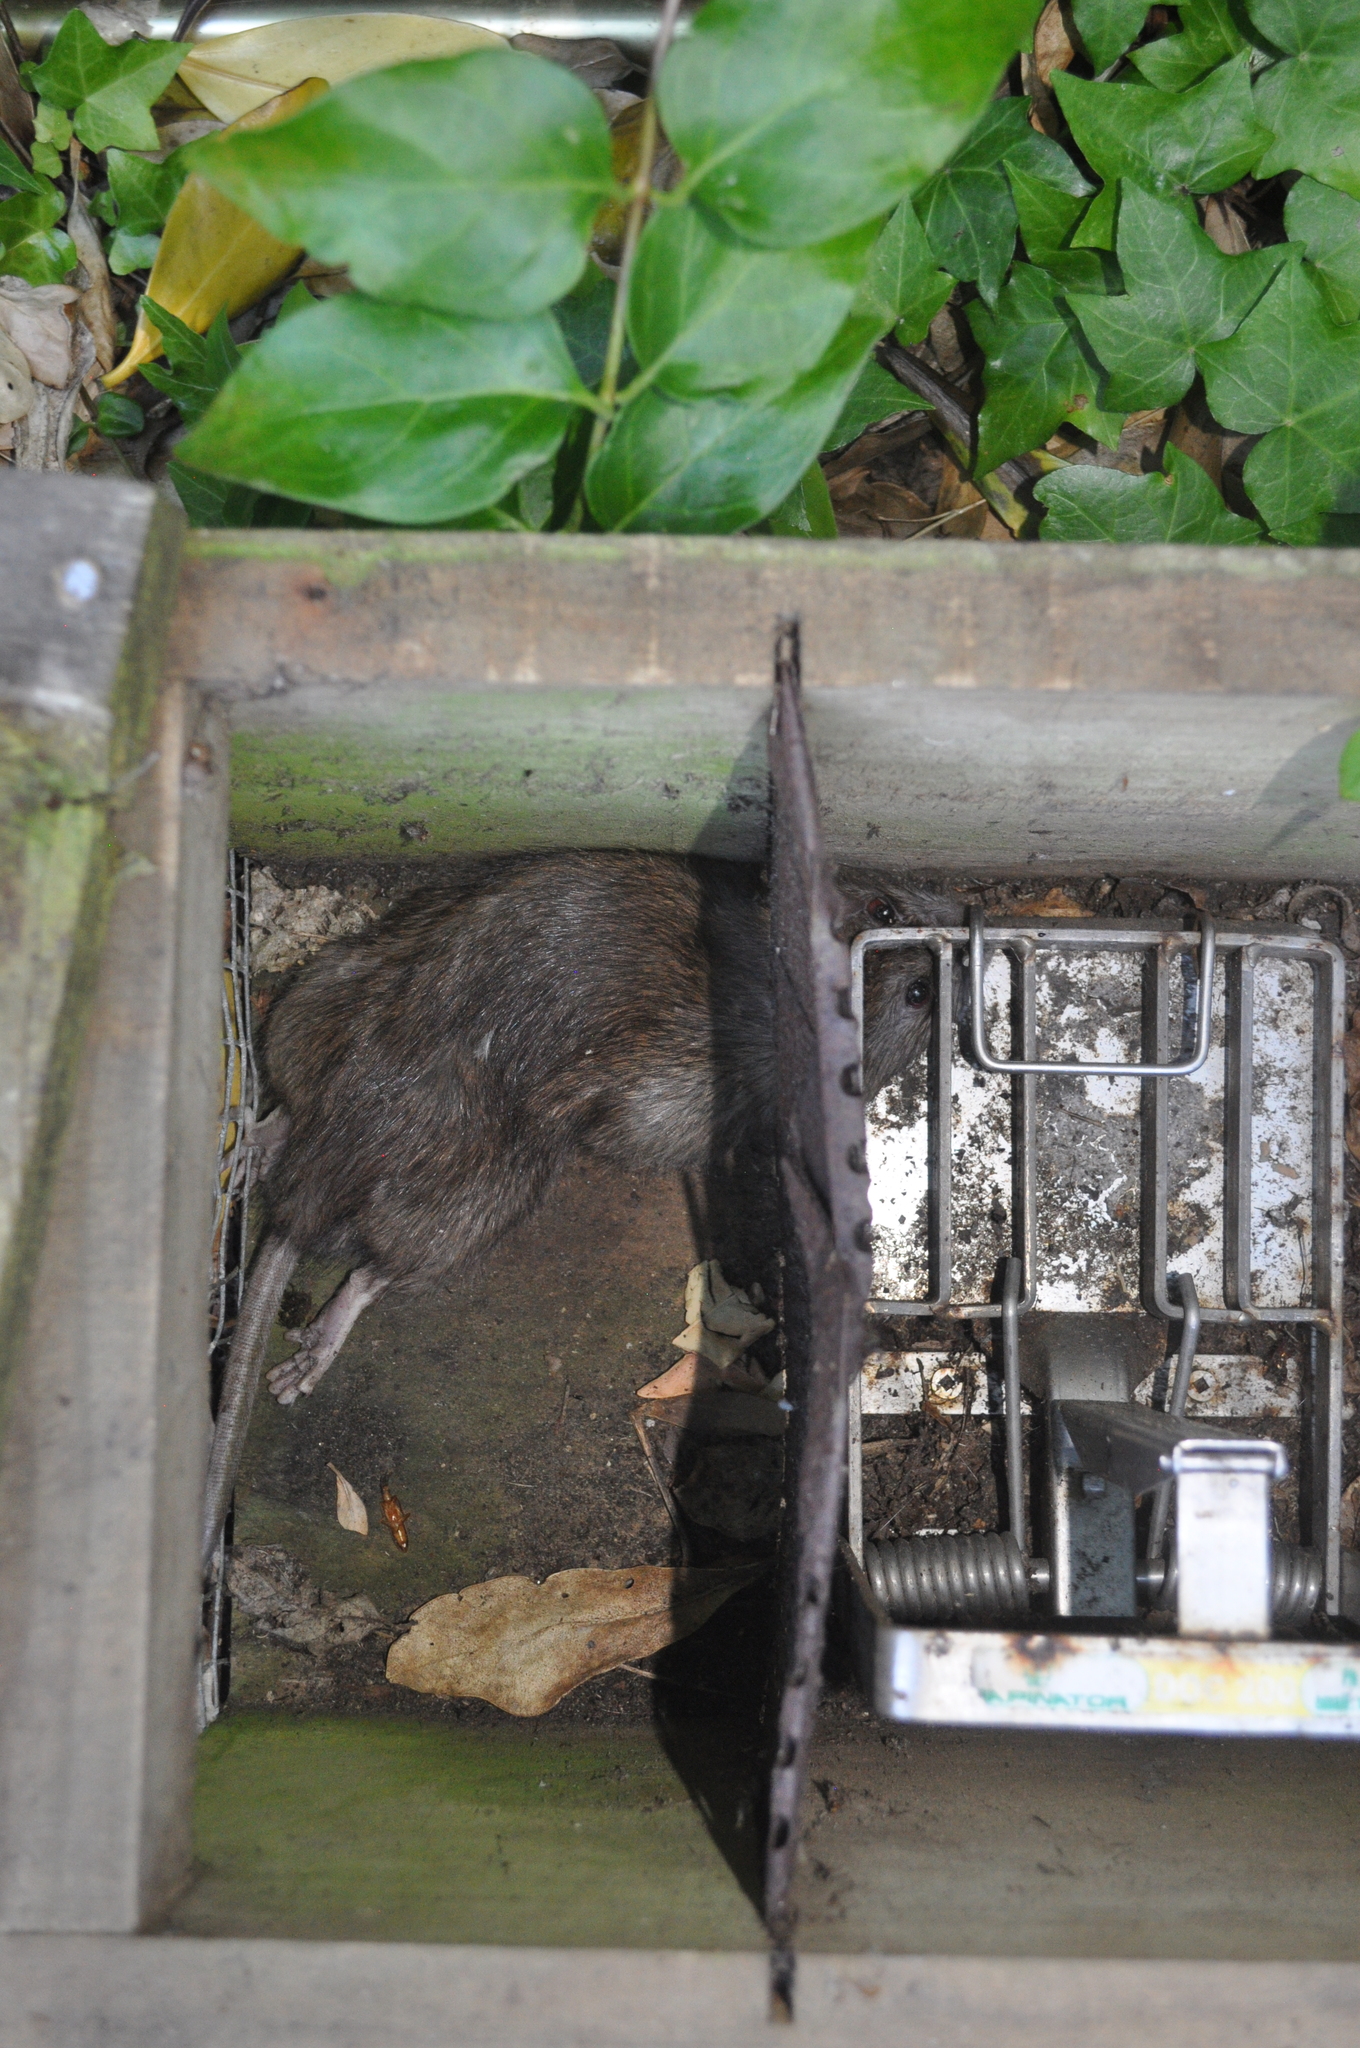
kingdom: Animalia
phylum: Chordata
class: Mammalia
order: Rodentia
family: Muridae
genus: Rattus
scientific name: Rattus norvegicus
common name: Brown rat
